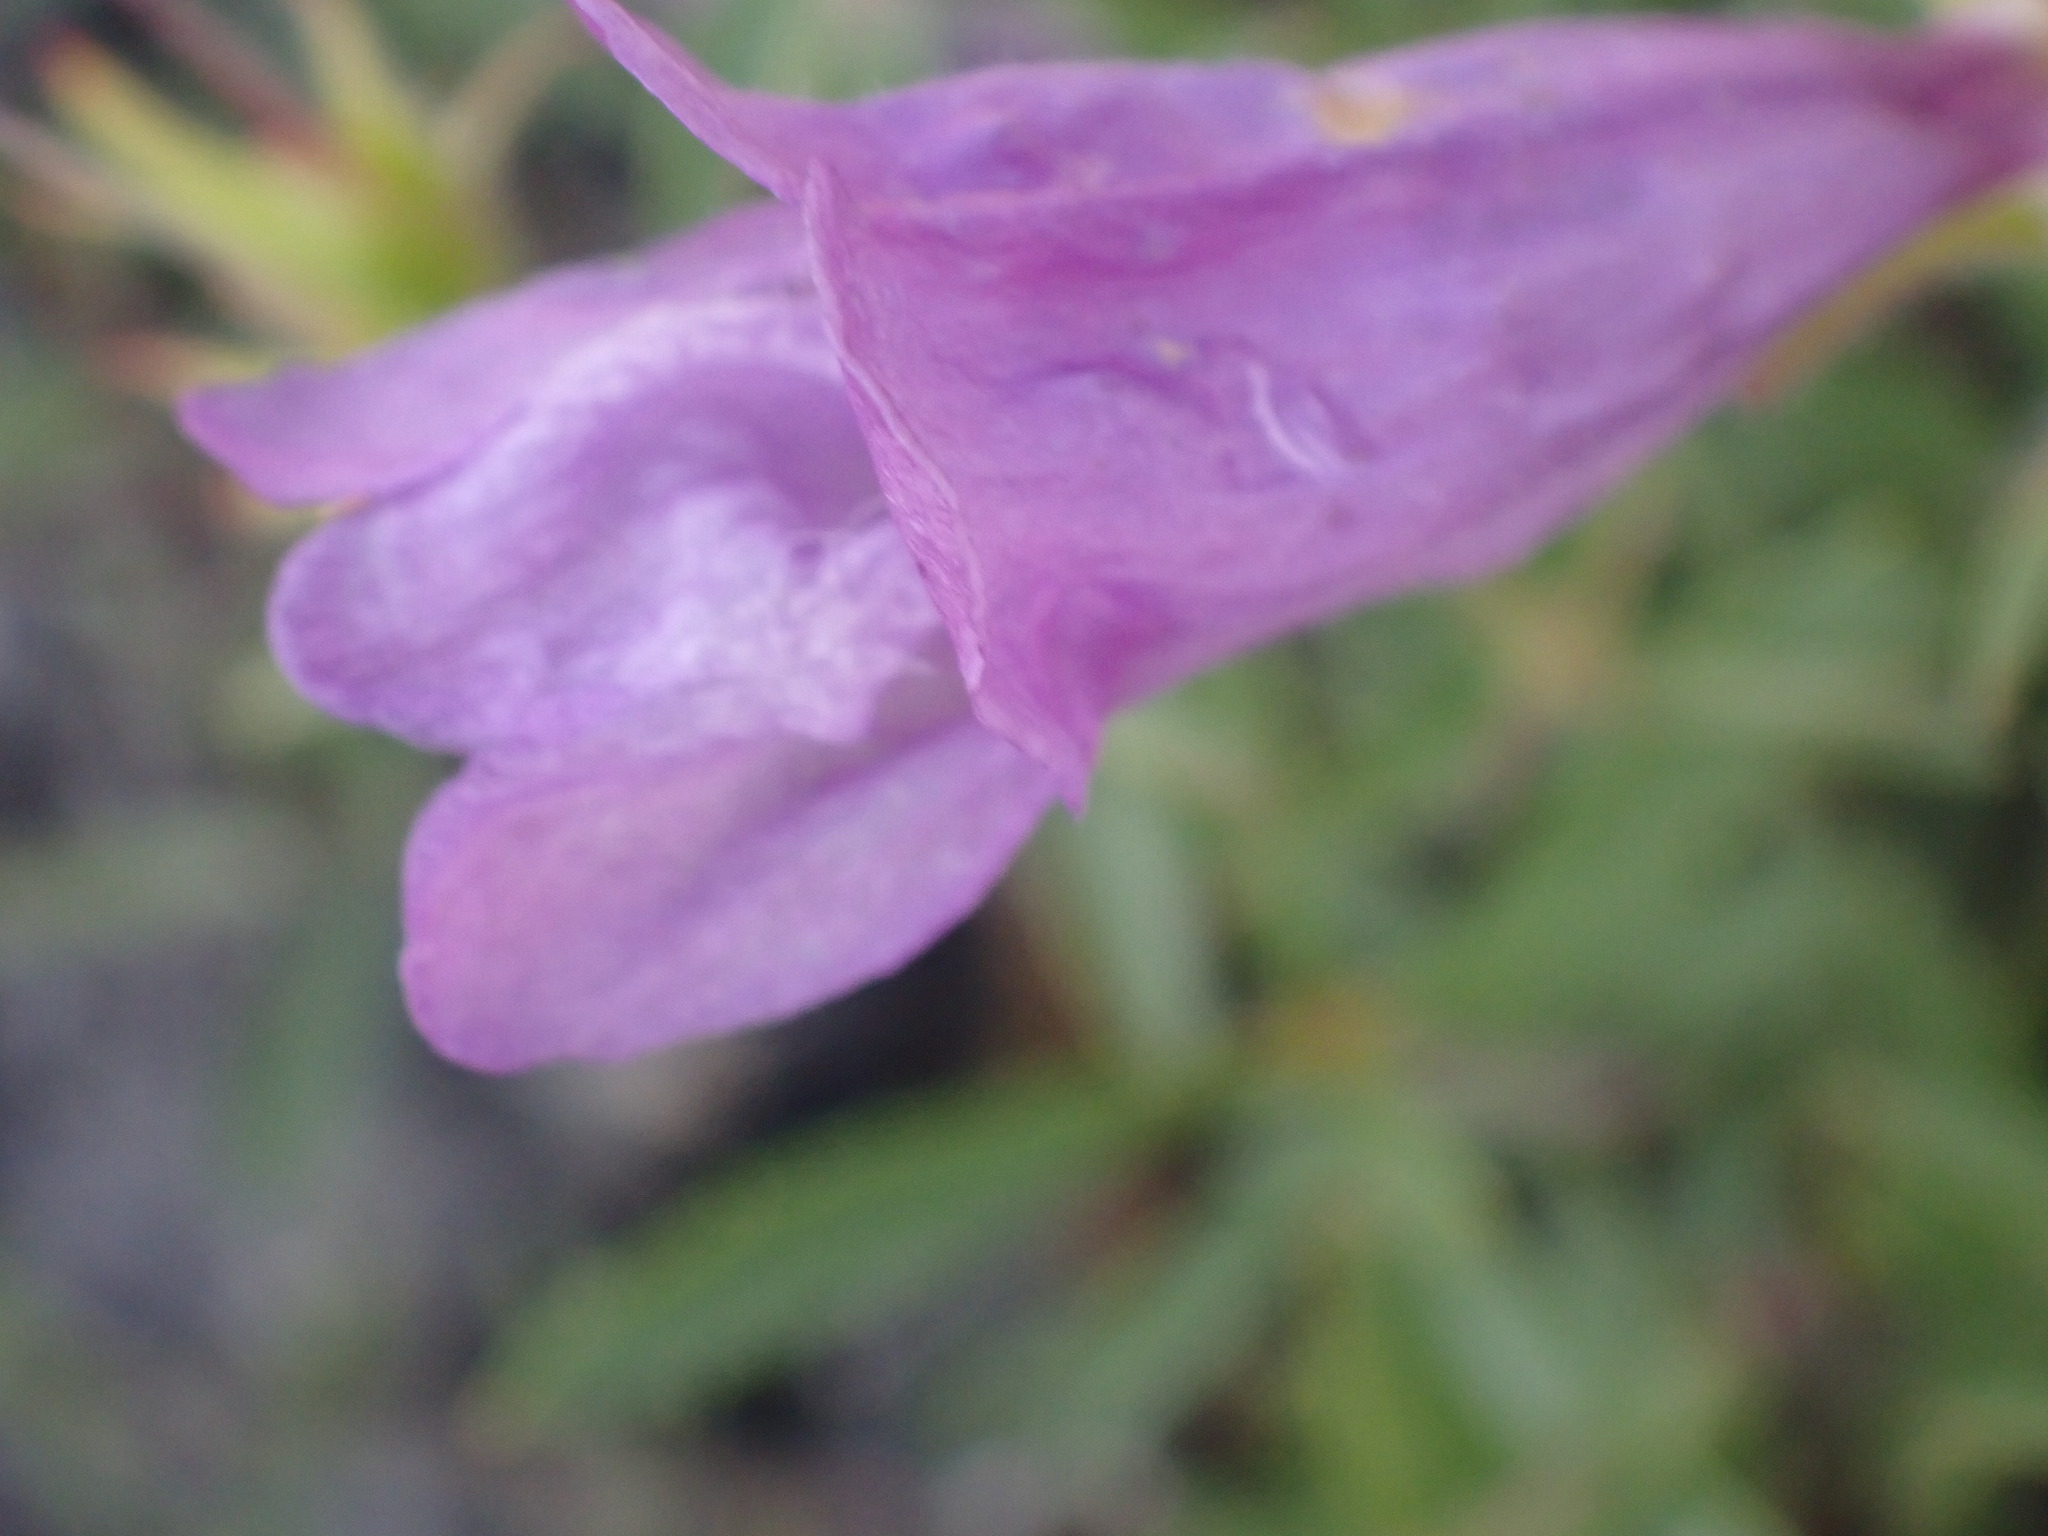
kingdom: Plantae
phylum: Tracheophyta
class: Magnoliopsida
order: Lamiales
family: Plantaginaceae
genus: Penstemon
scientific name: Penstemon fruticosus
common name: Bush penstemon
